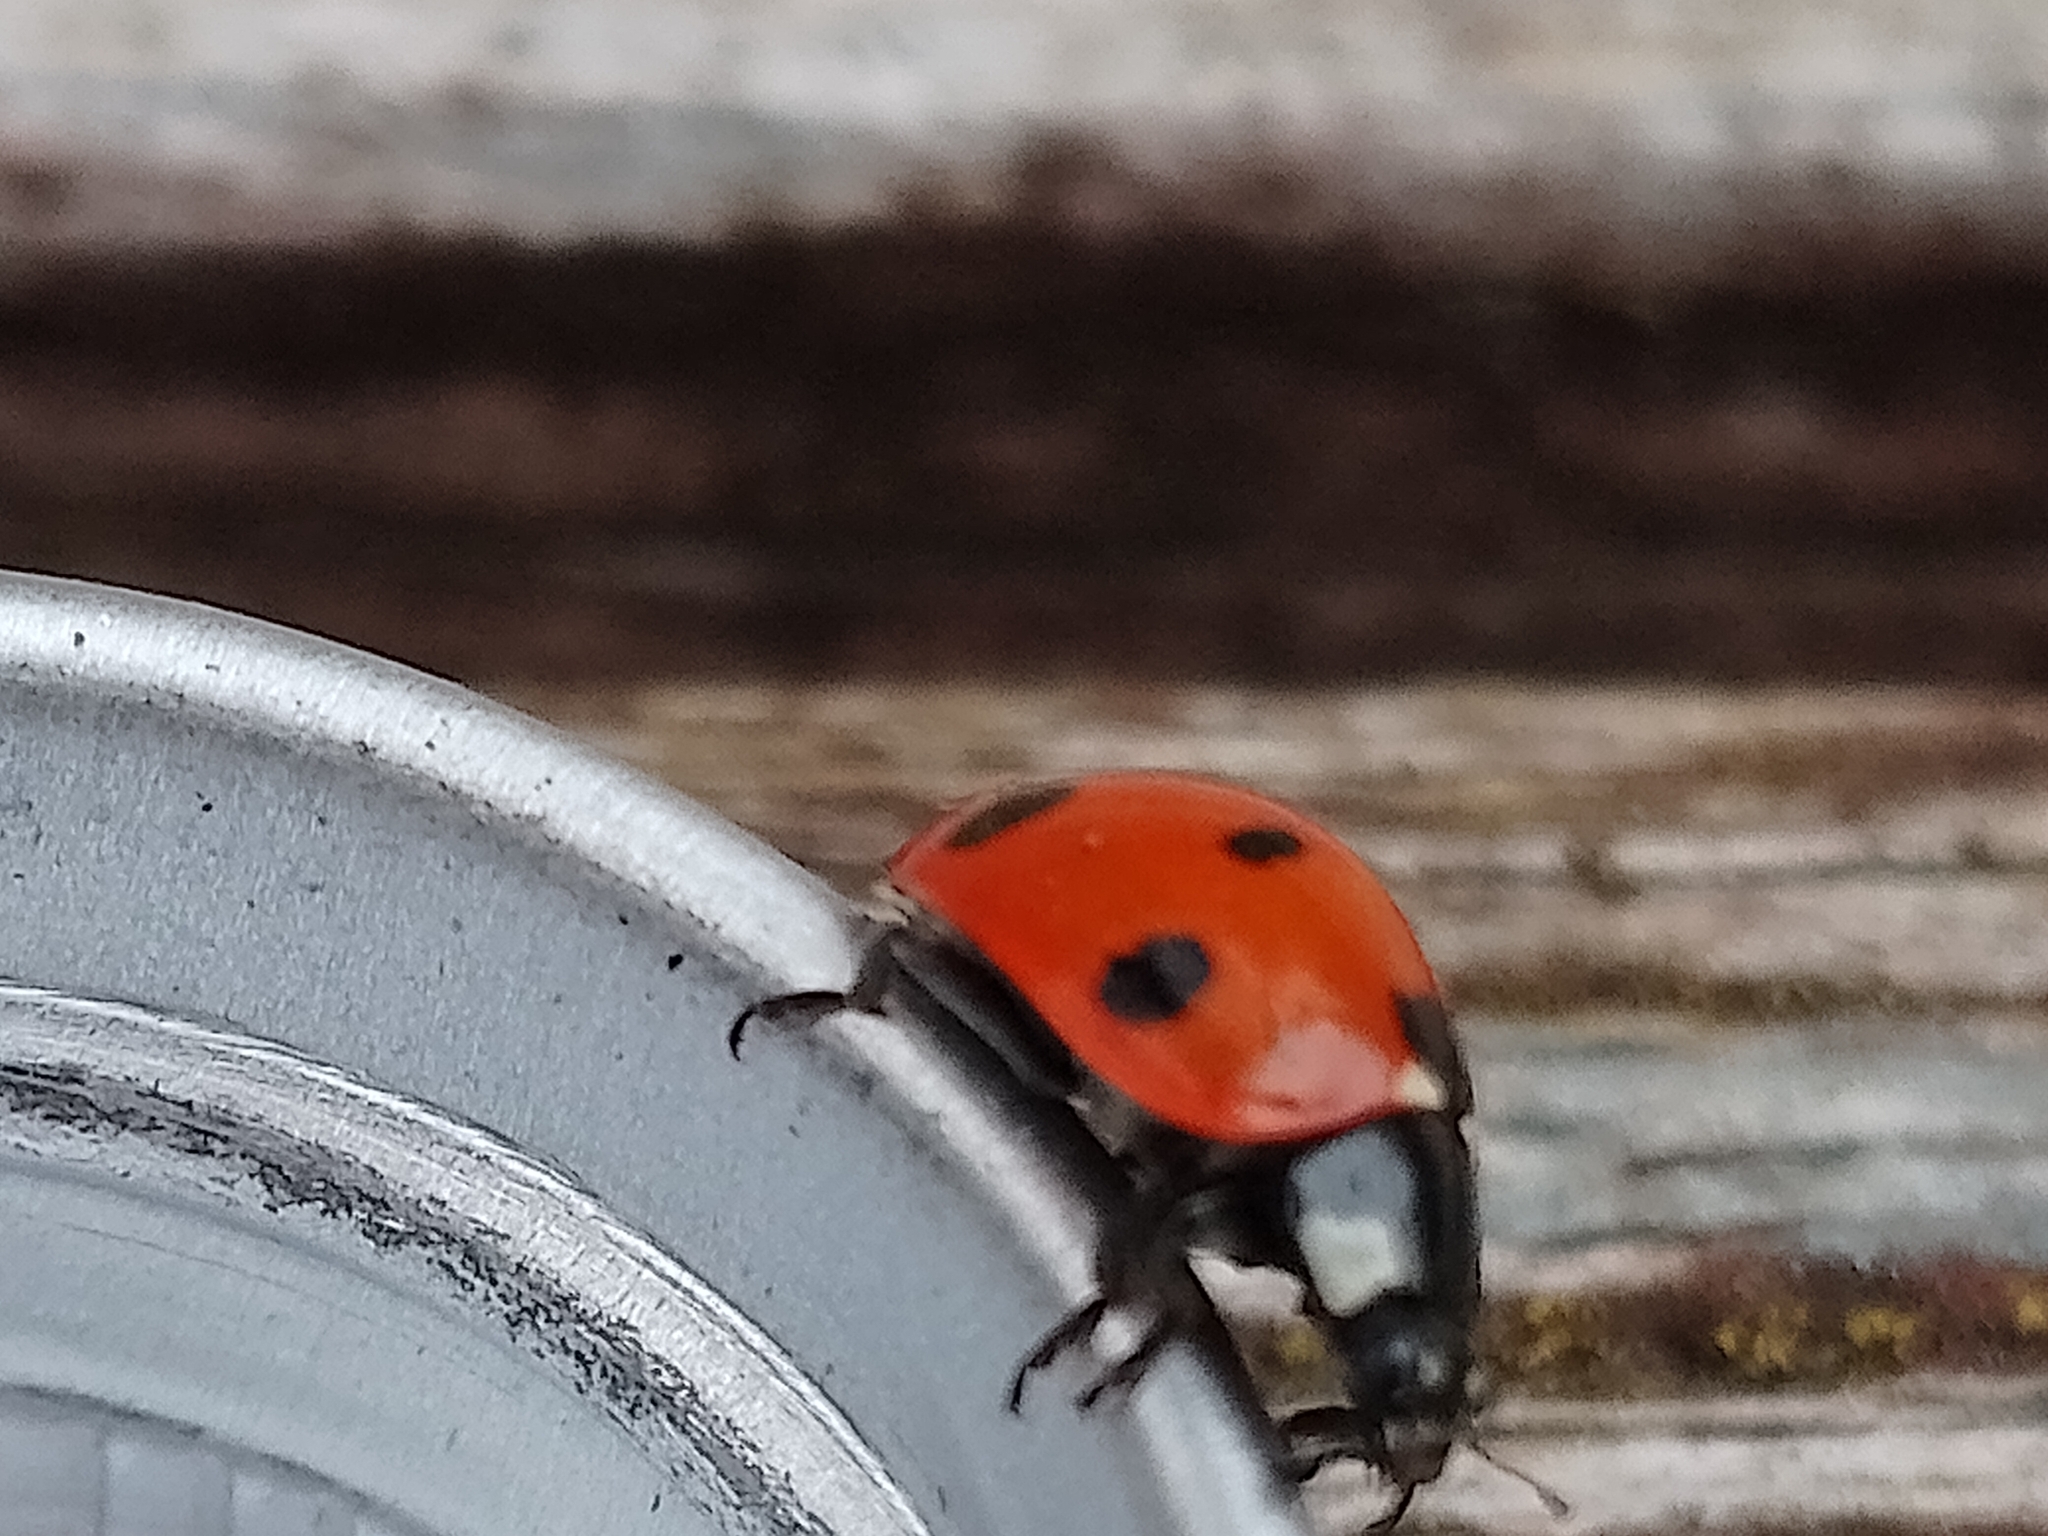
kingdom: Animalia
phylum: Arthropoda
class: Insecta
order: Coleoptera
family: Coccinellidae
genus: Coccinella
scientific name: Coccinella septempunctata
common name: Sevenspotted lady beetle
